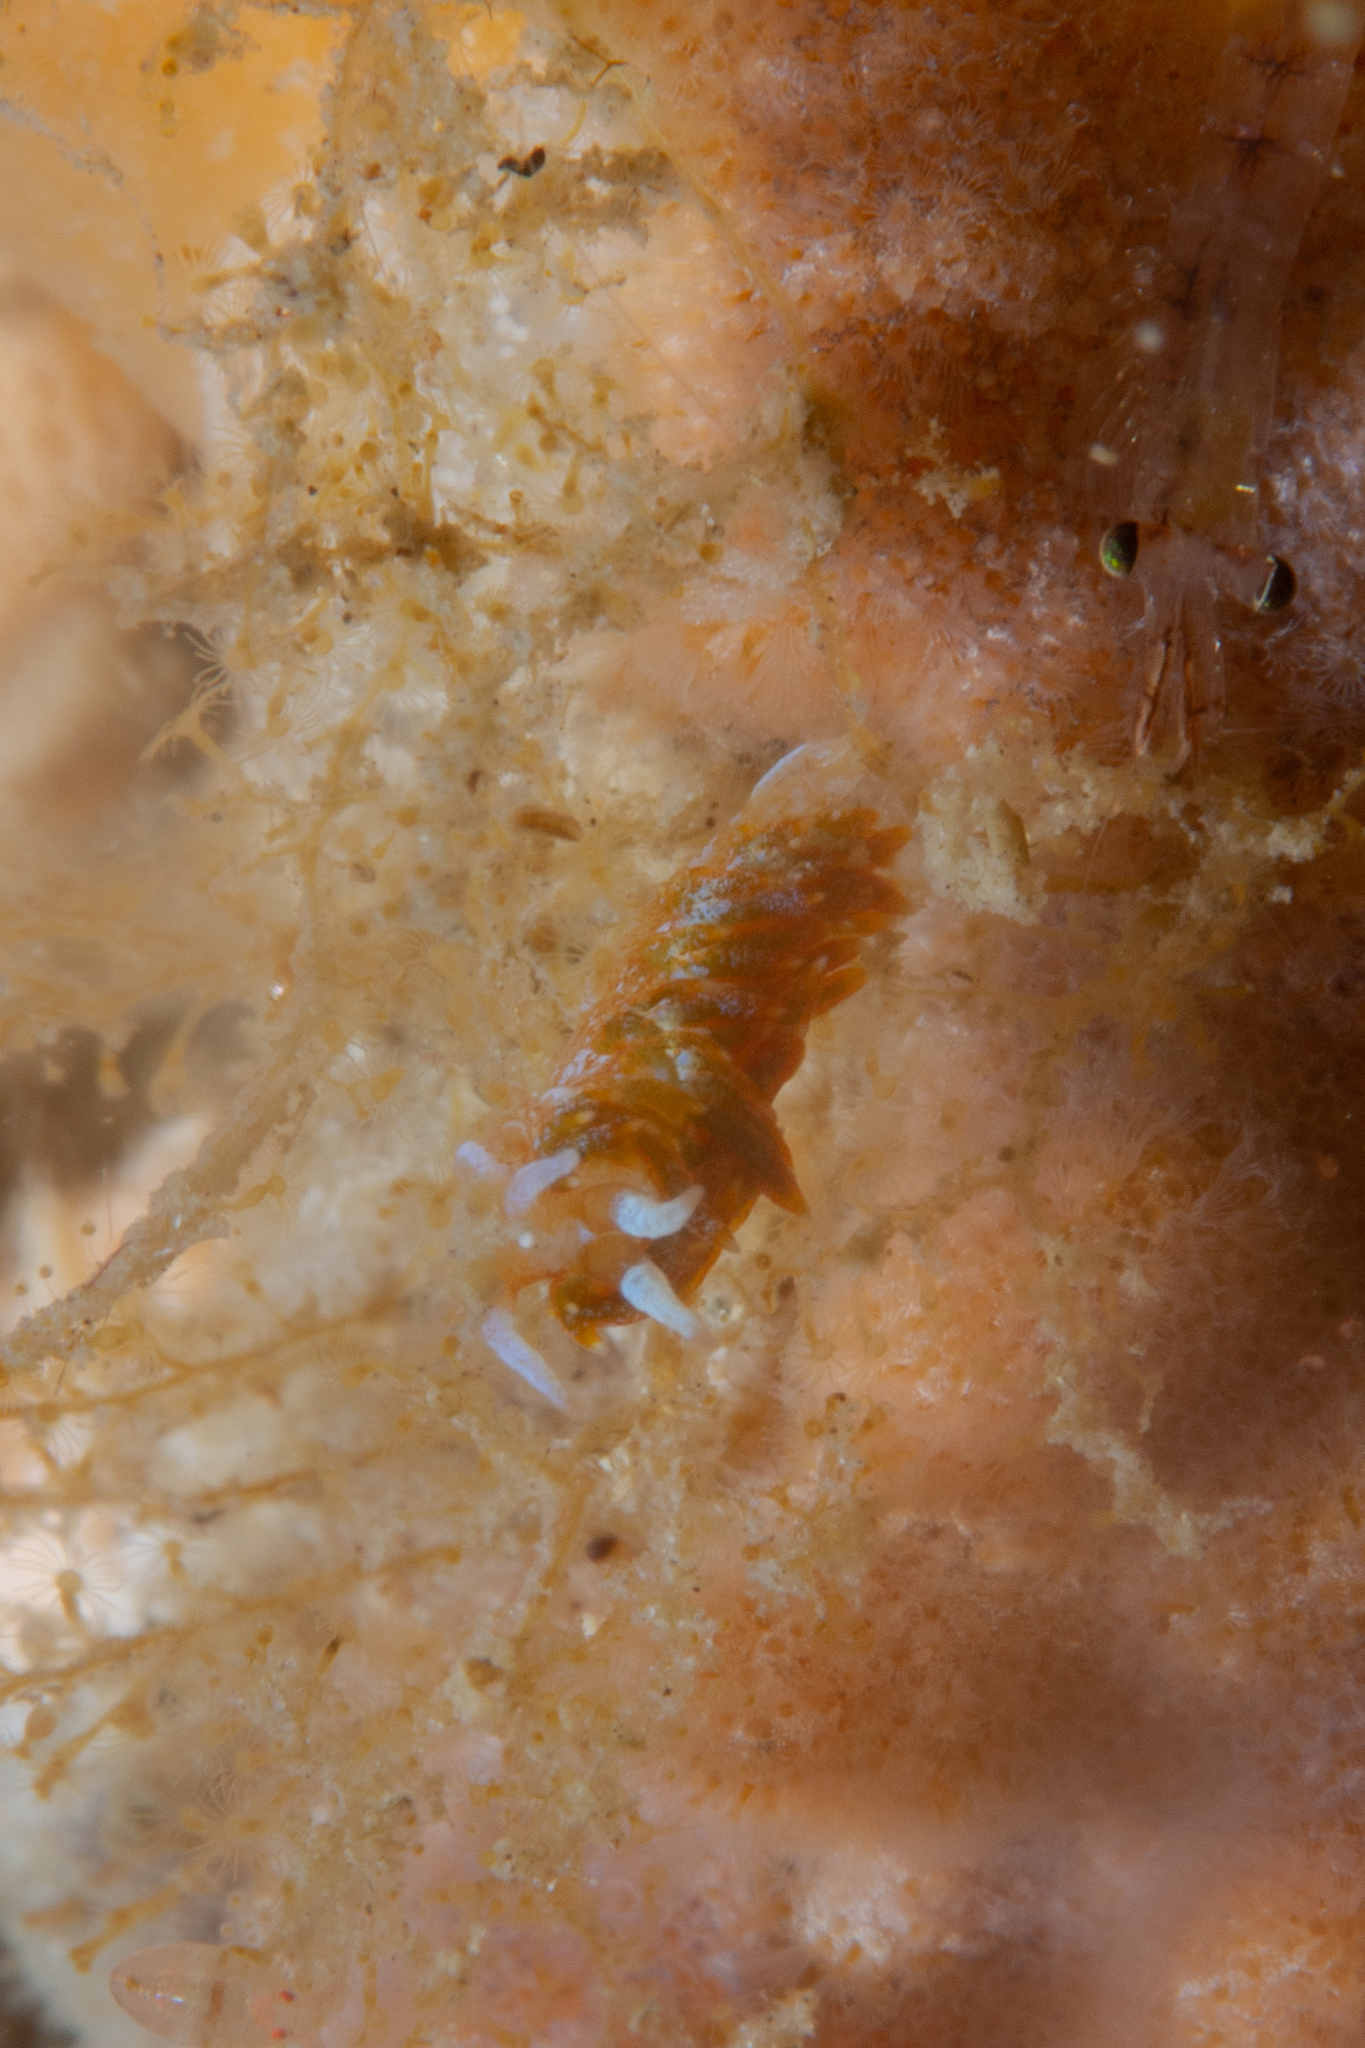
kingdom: Animalia
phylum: Mollusca
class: Gastropoda
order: Nudibranchia
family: Apataidae
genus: Tularia
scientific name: Tularia bractea
